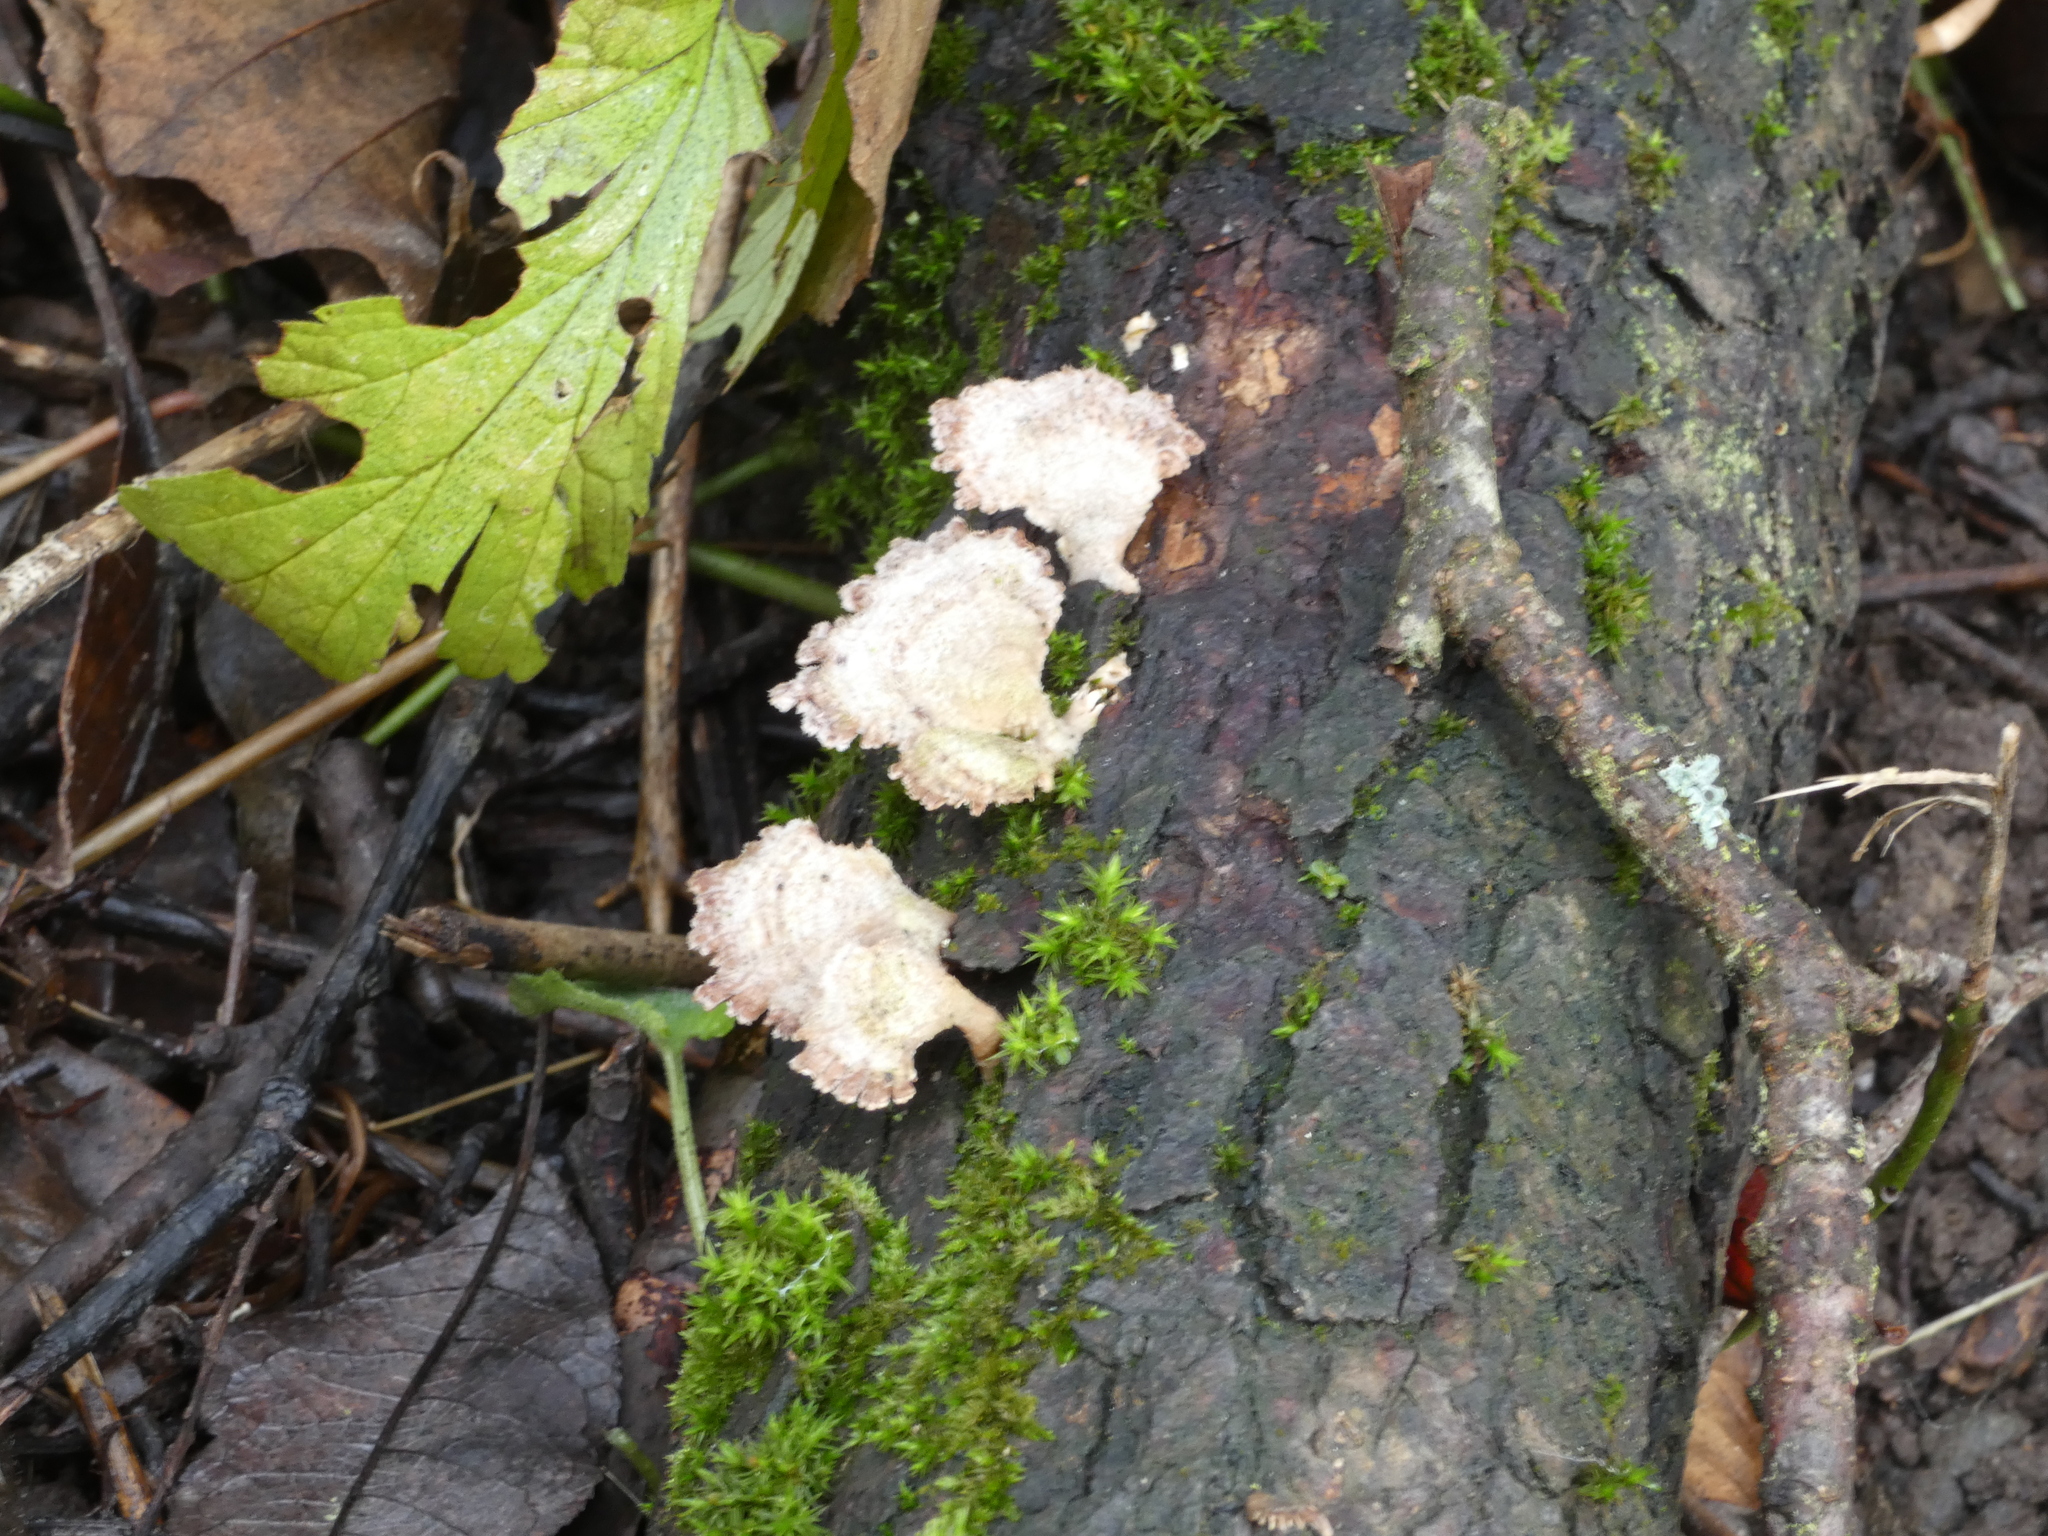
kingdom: Fungi
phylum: Basidiomycota
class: Agaricomycetes
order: Agaricales
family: Schizophyllaceae
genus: Schizophyllum
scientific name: Schizophyllum commune
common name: Common porecrust
